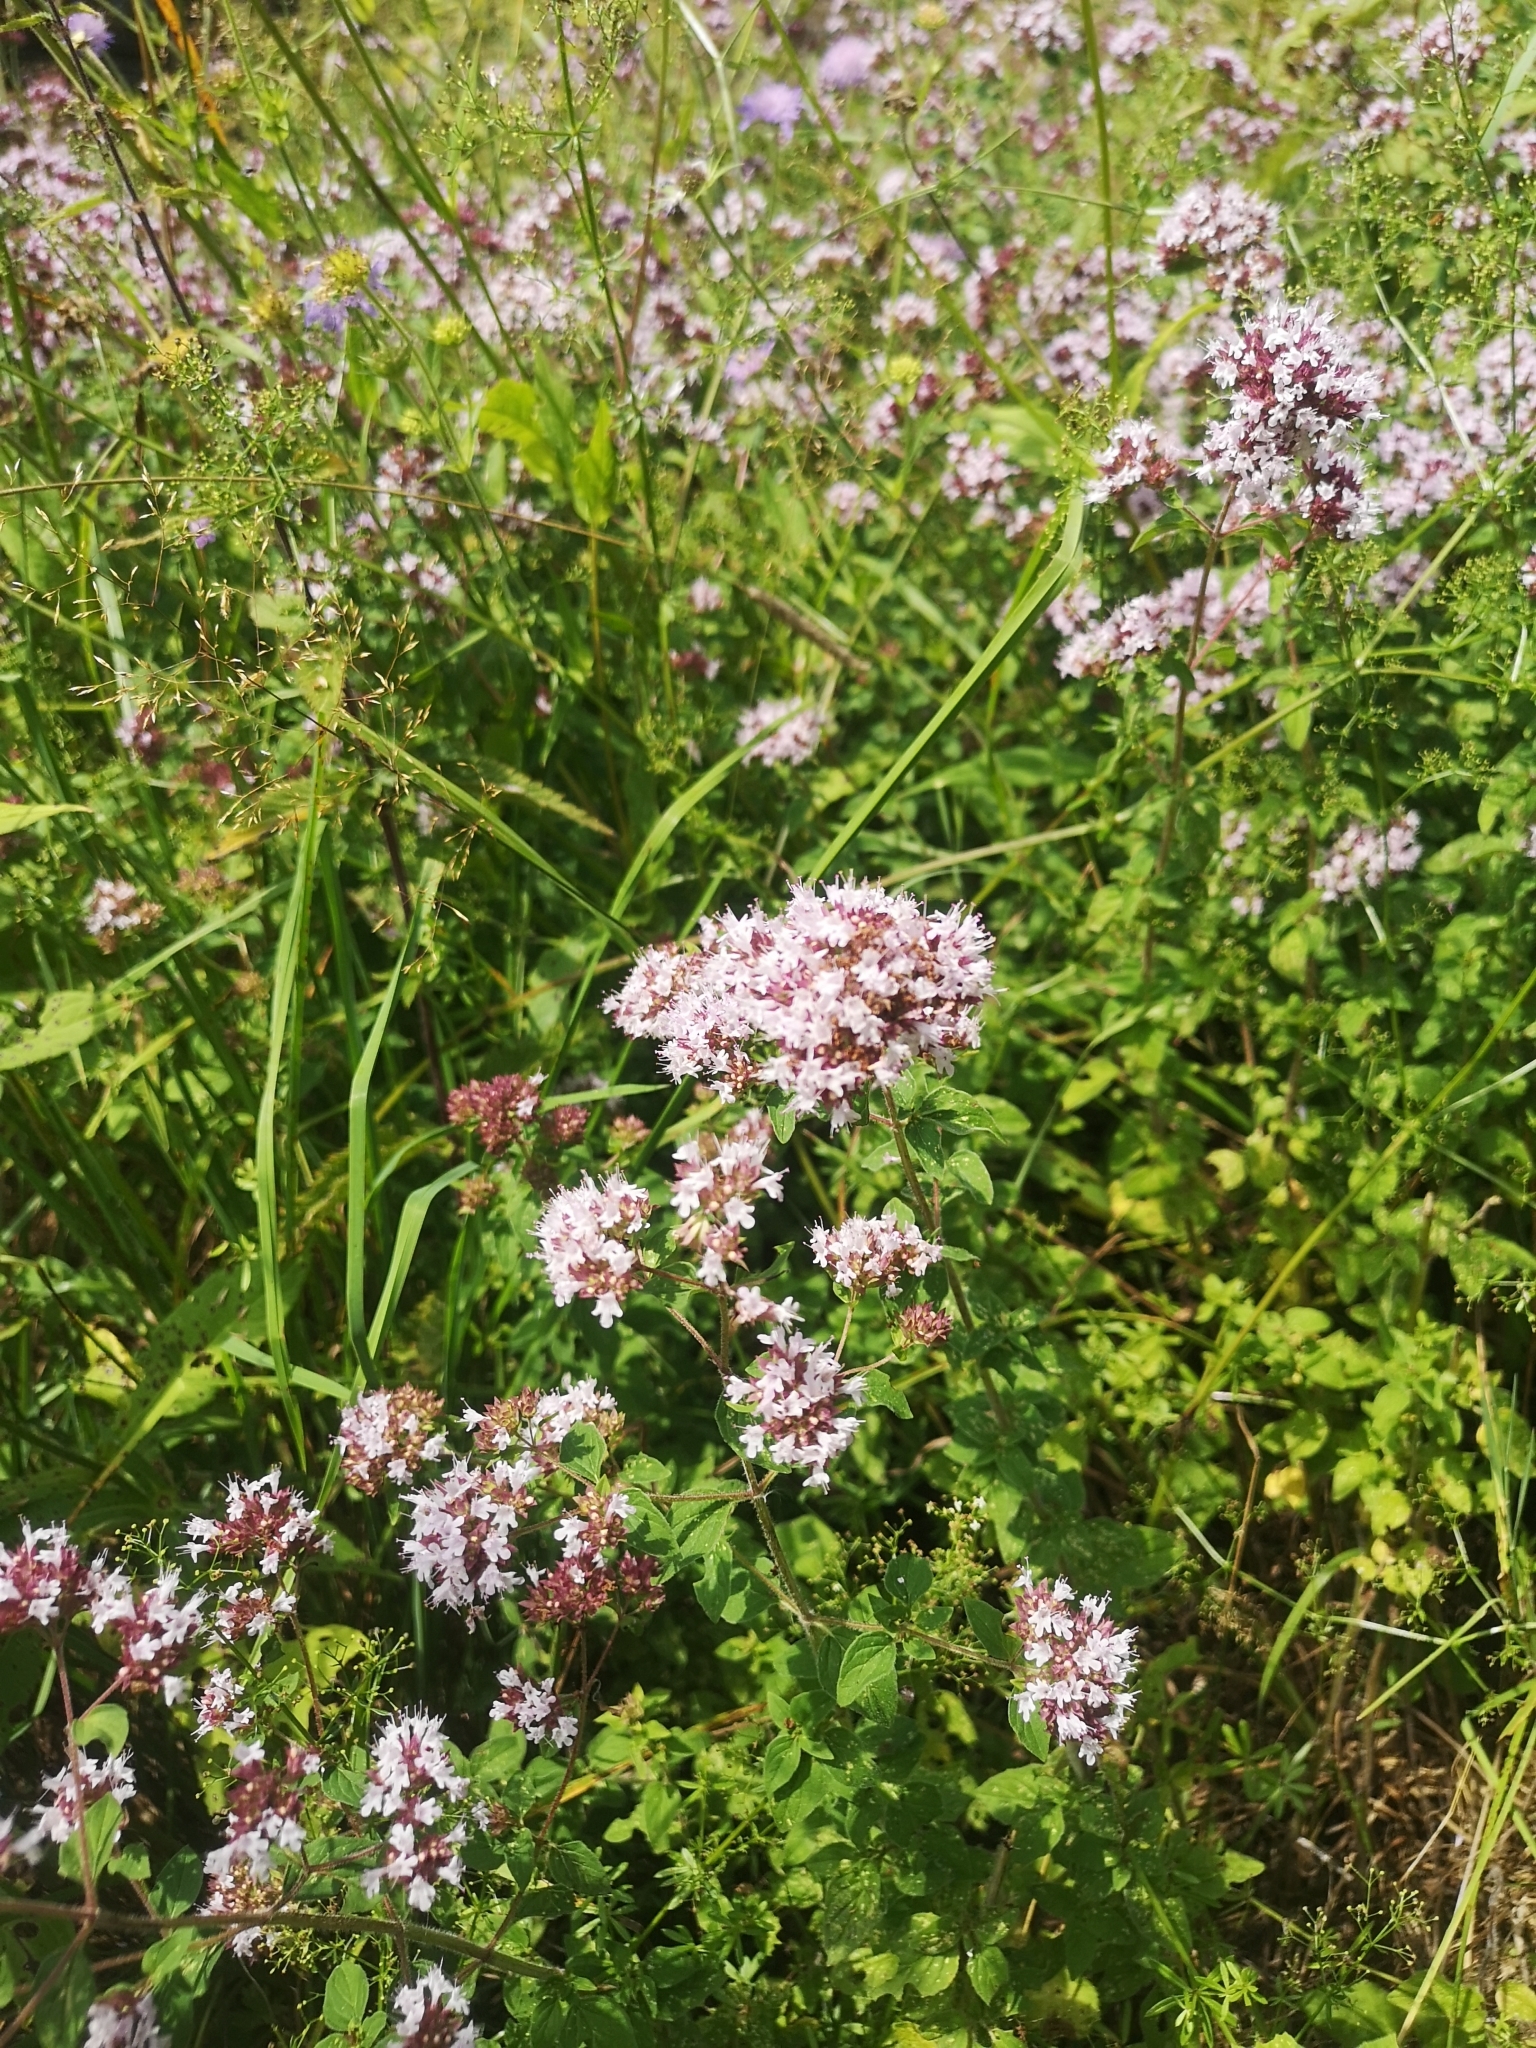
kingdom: Plantae
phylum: Tracheophyta
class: Magnoliopsida
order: Lamiales
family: Lamiaceae
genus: Origanum
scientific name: Origanum vulgare
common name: Wild marjoram
